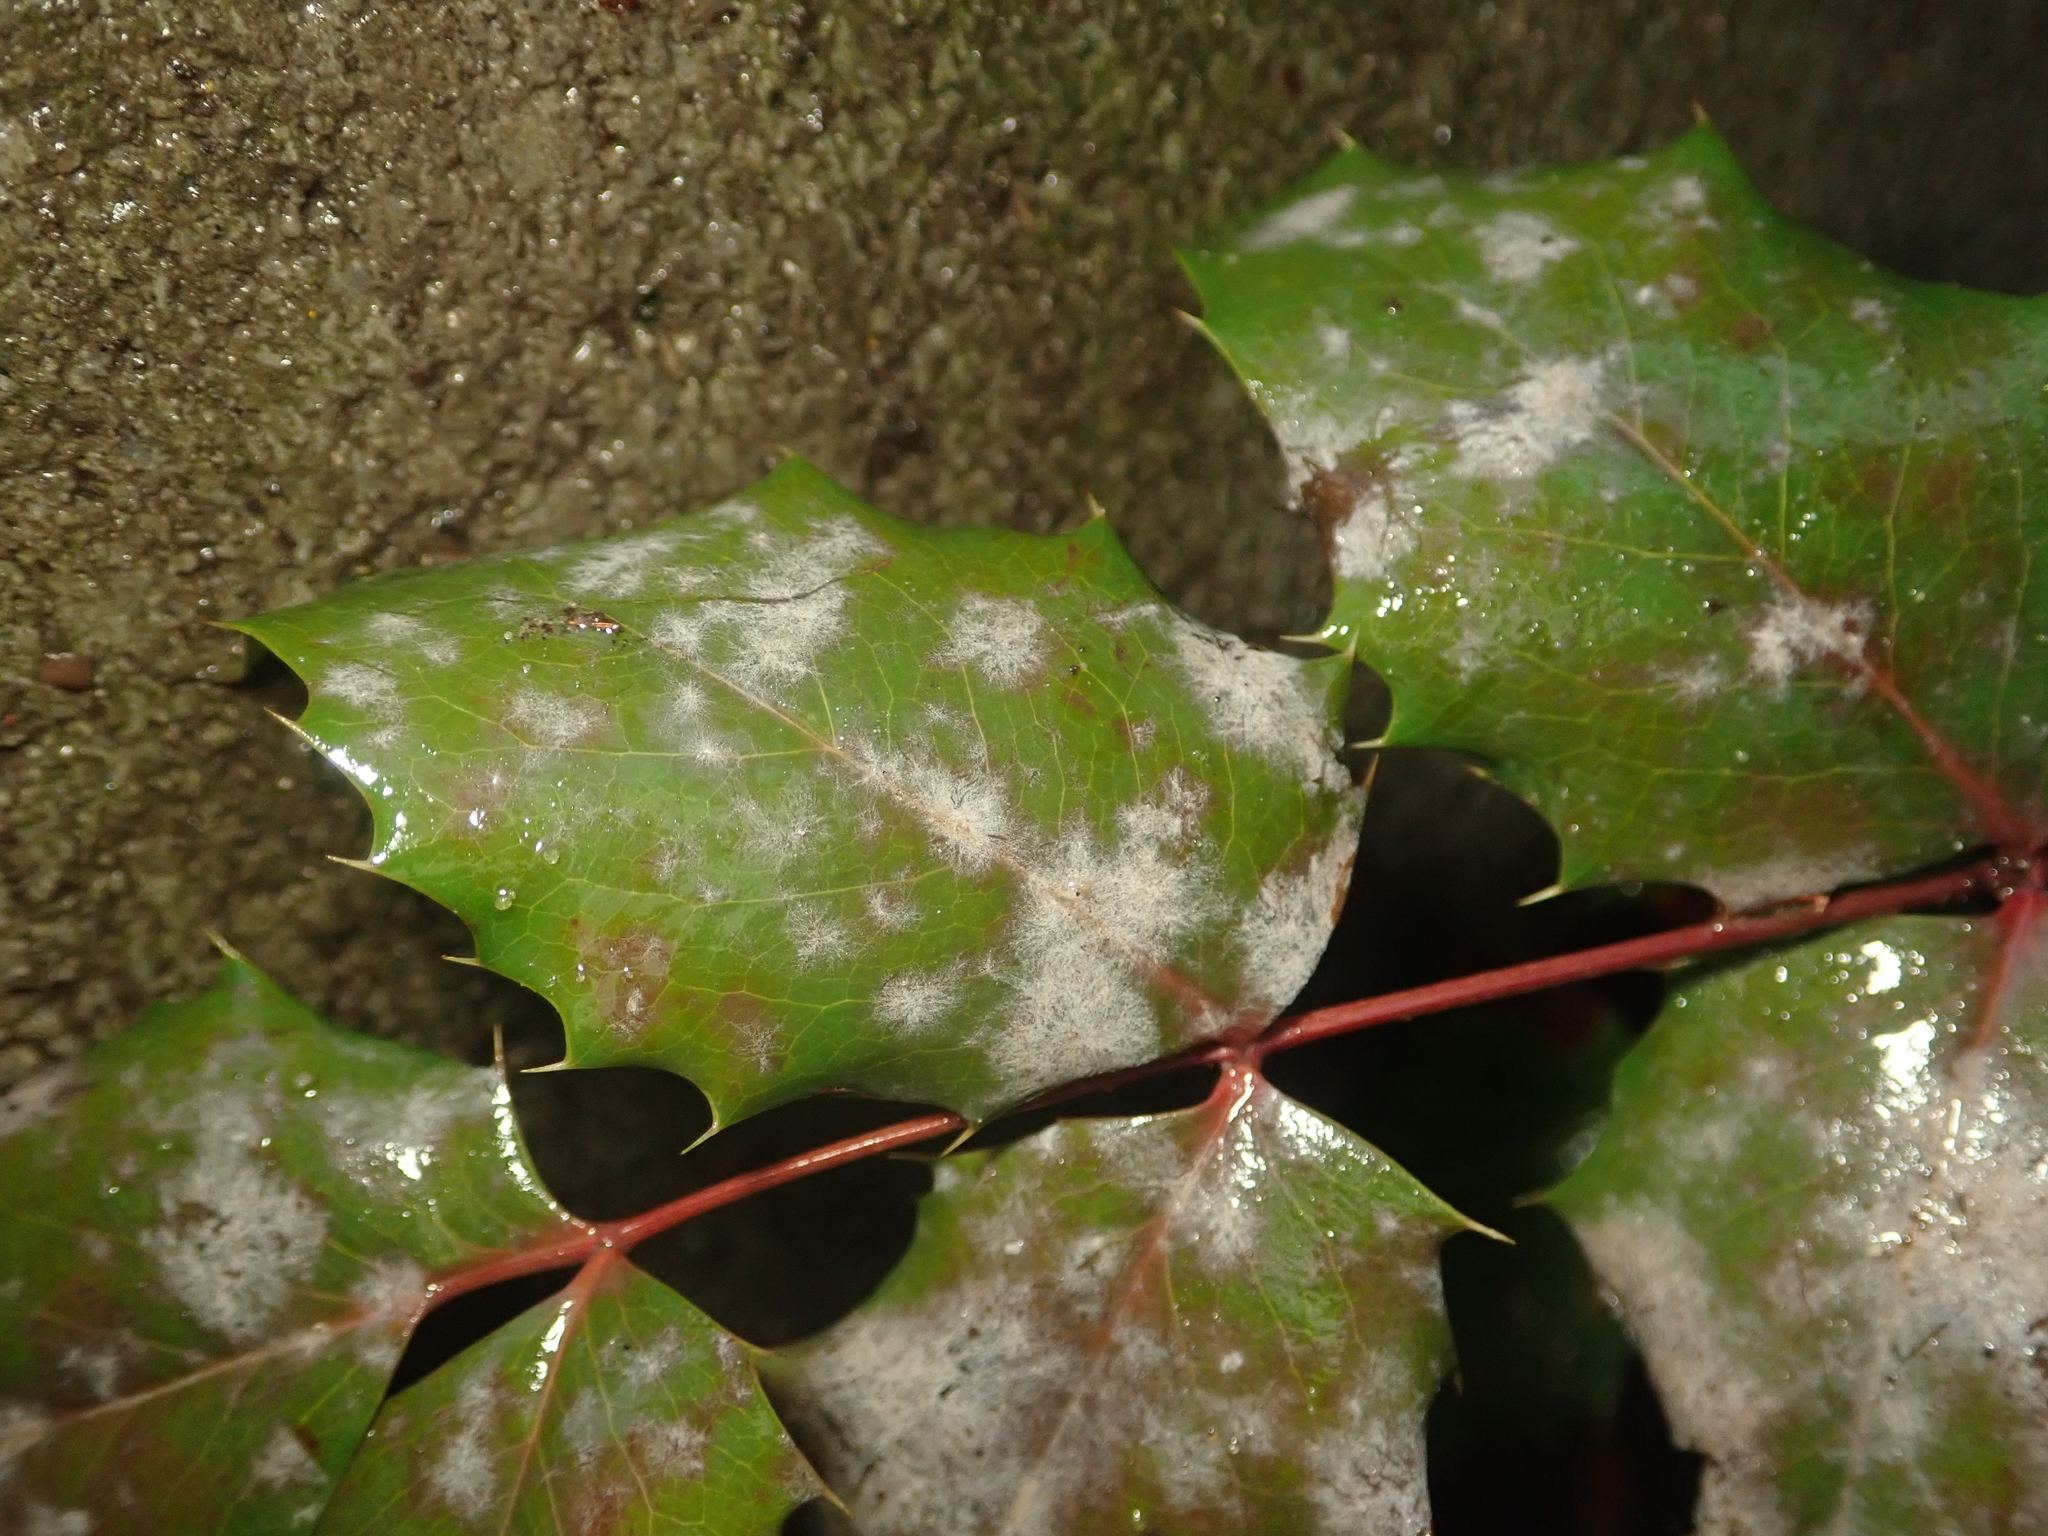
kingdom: Fungi
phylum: Ascomycota
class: Leotiomycetes
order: Helotiales
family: Erysiphaceae
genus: Erysiphe
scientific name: Erysiphe berberidis
